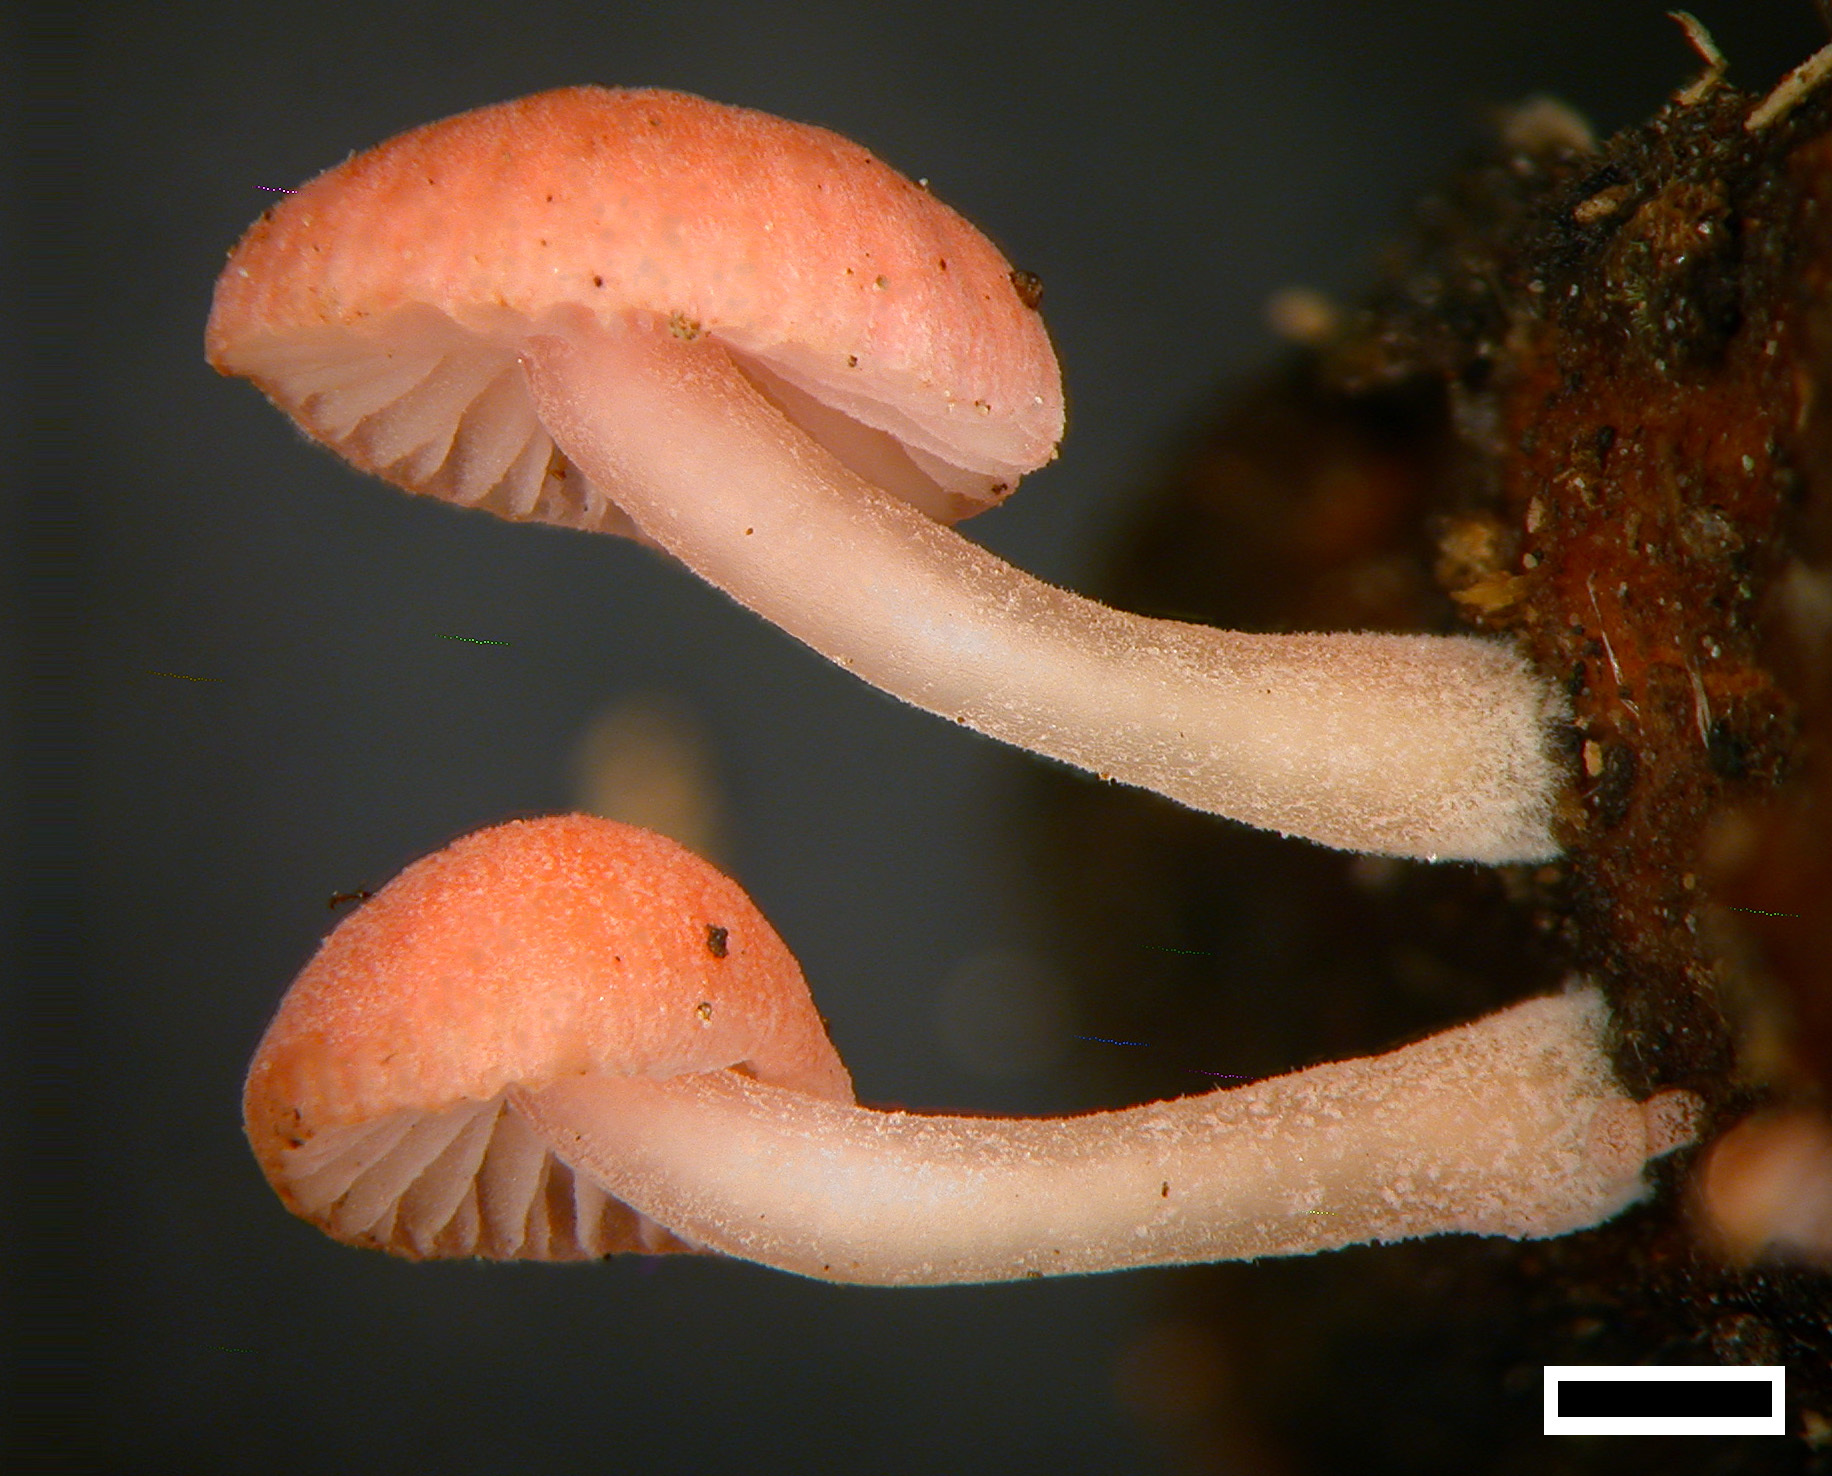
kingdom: Fungi
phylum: Basidiomycota
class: Agaricomycetes
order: Agaricales
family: Mycenaceae
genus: Mycena
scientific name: Mycena roseoflava
